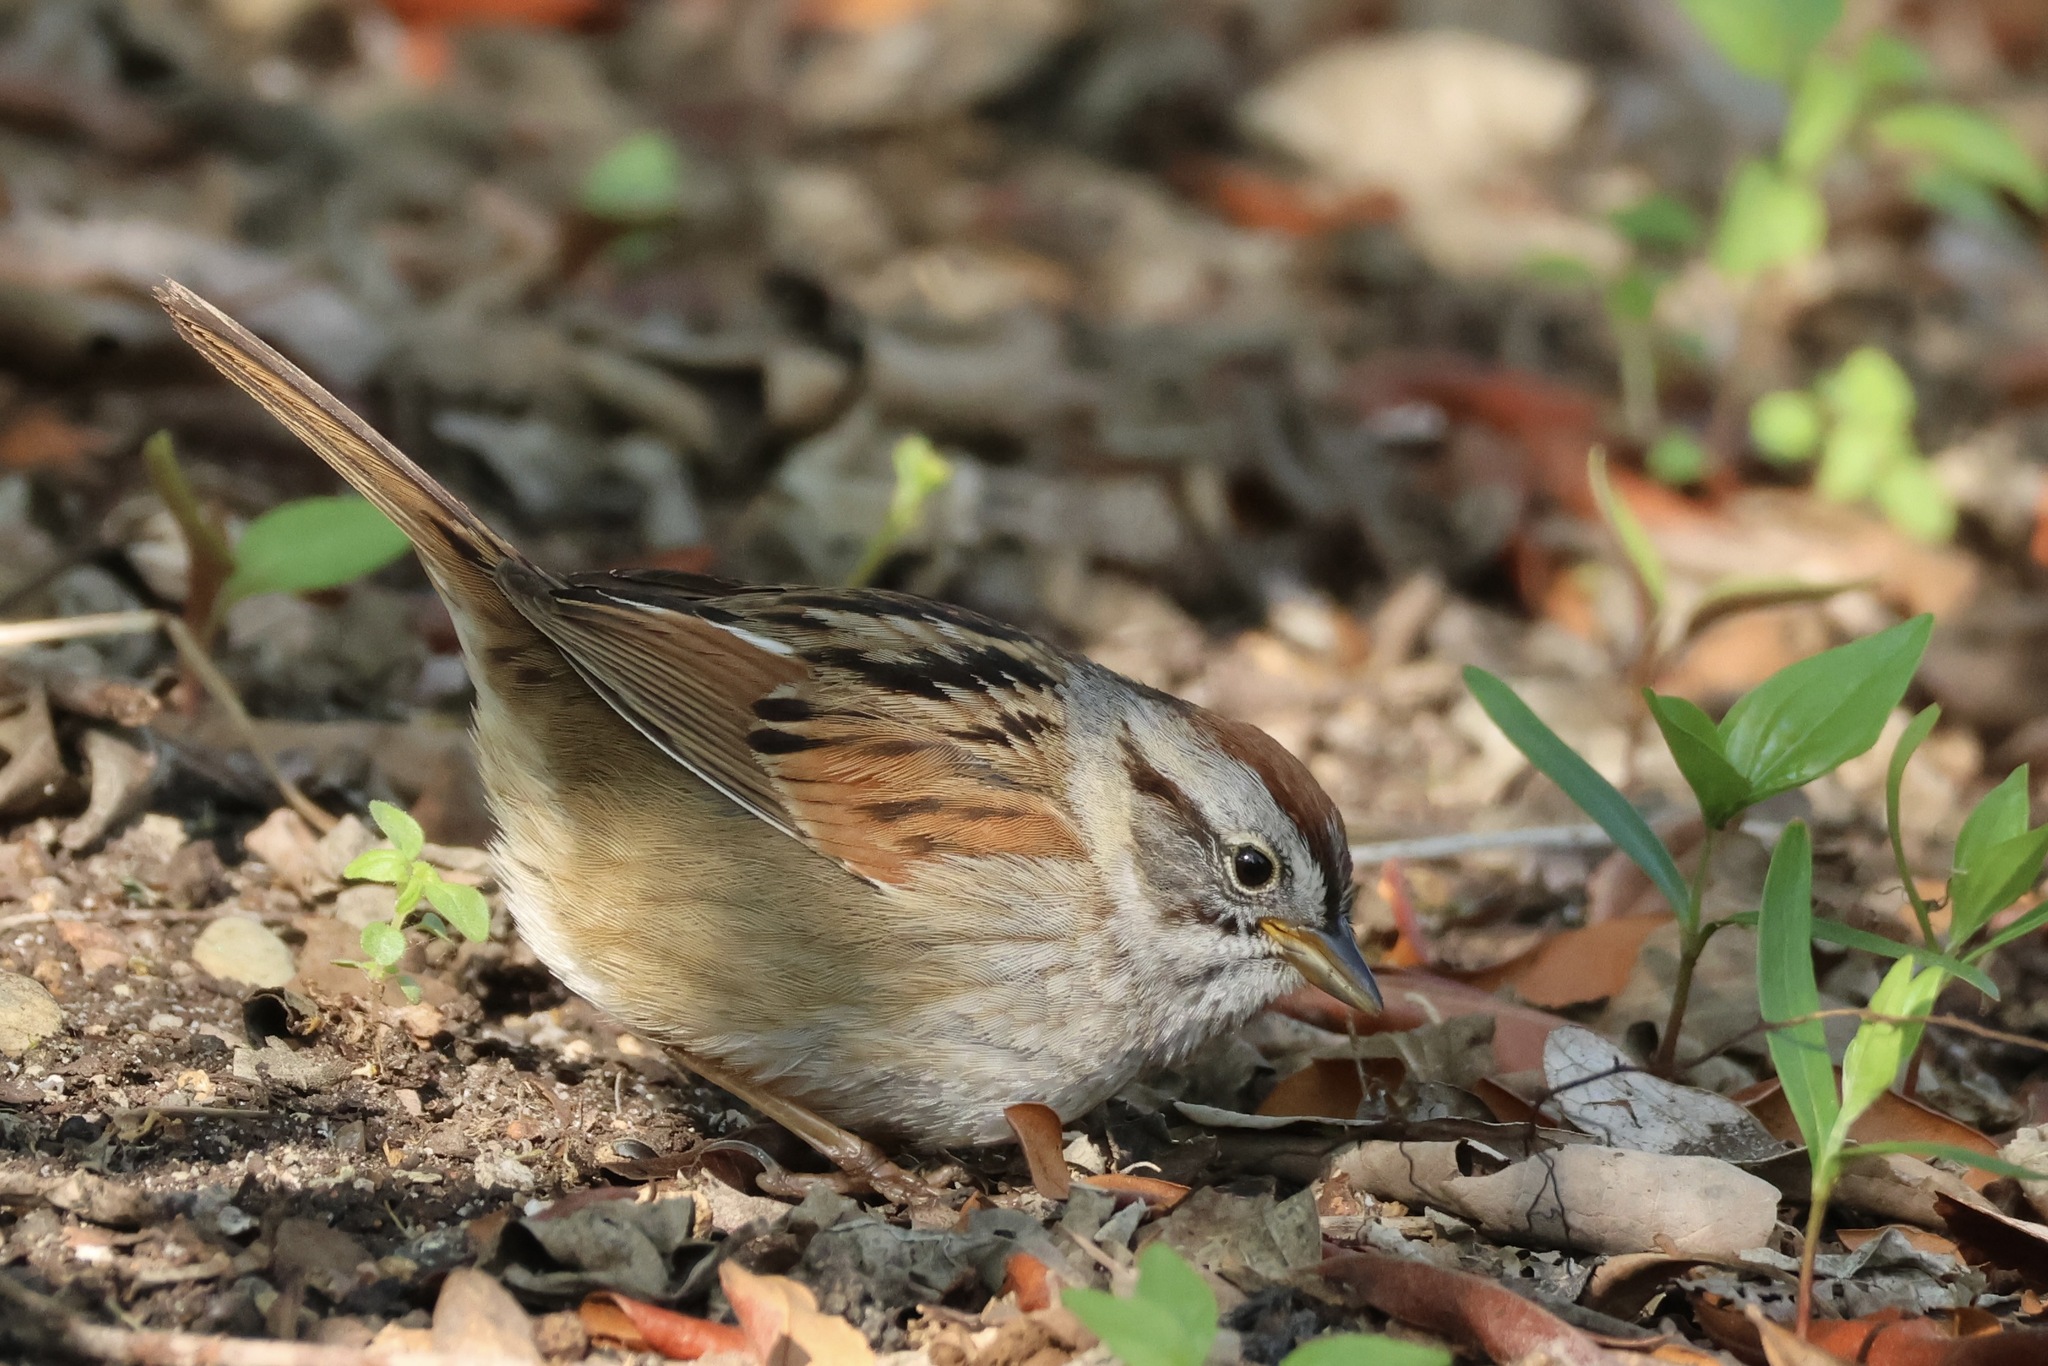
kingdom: Animalia
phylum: Chordata
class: Aves
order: Passeriformes
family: Passerellidae
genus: Melospiza
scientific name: Melospiza georgiana
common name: Swamp sparrow
